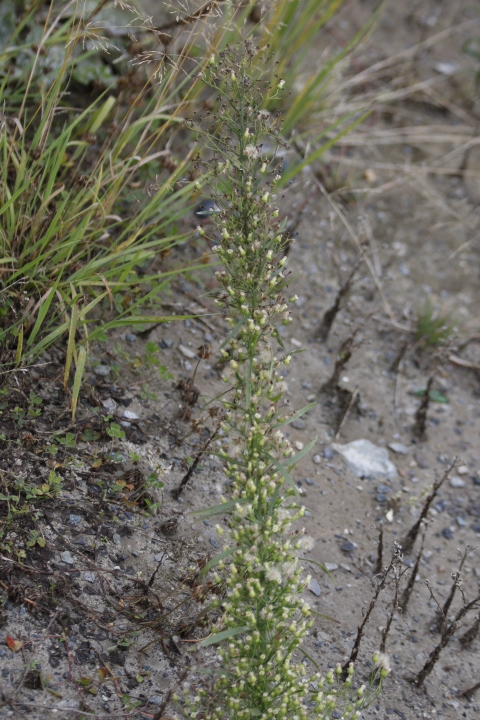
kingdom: Plantae
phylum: Tracheophyta
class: Magnoliopsida
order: Asterales
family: Asteraceae
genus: Erigeron
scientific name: Erigeron canadensis
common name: Canadian fleabane
